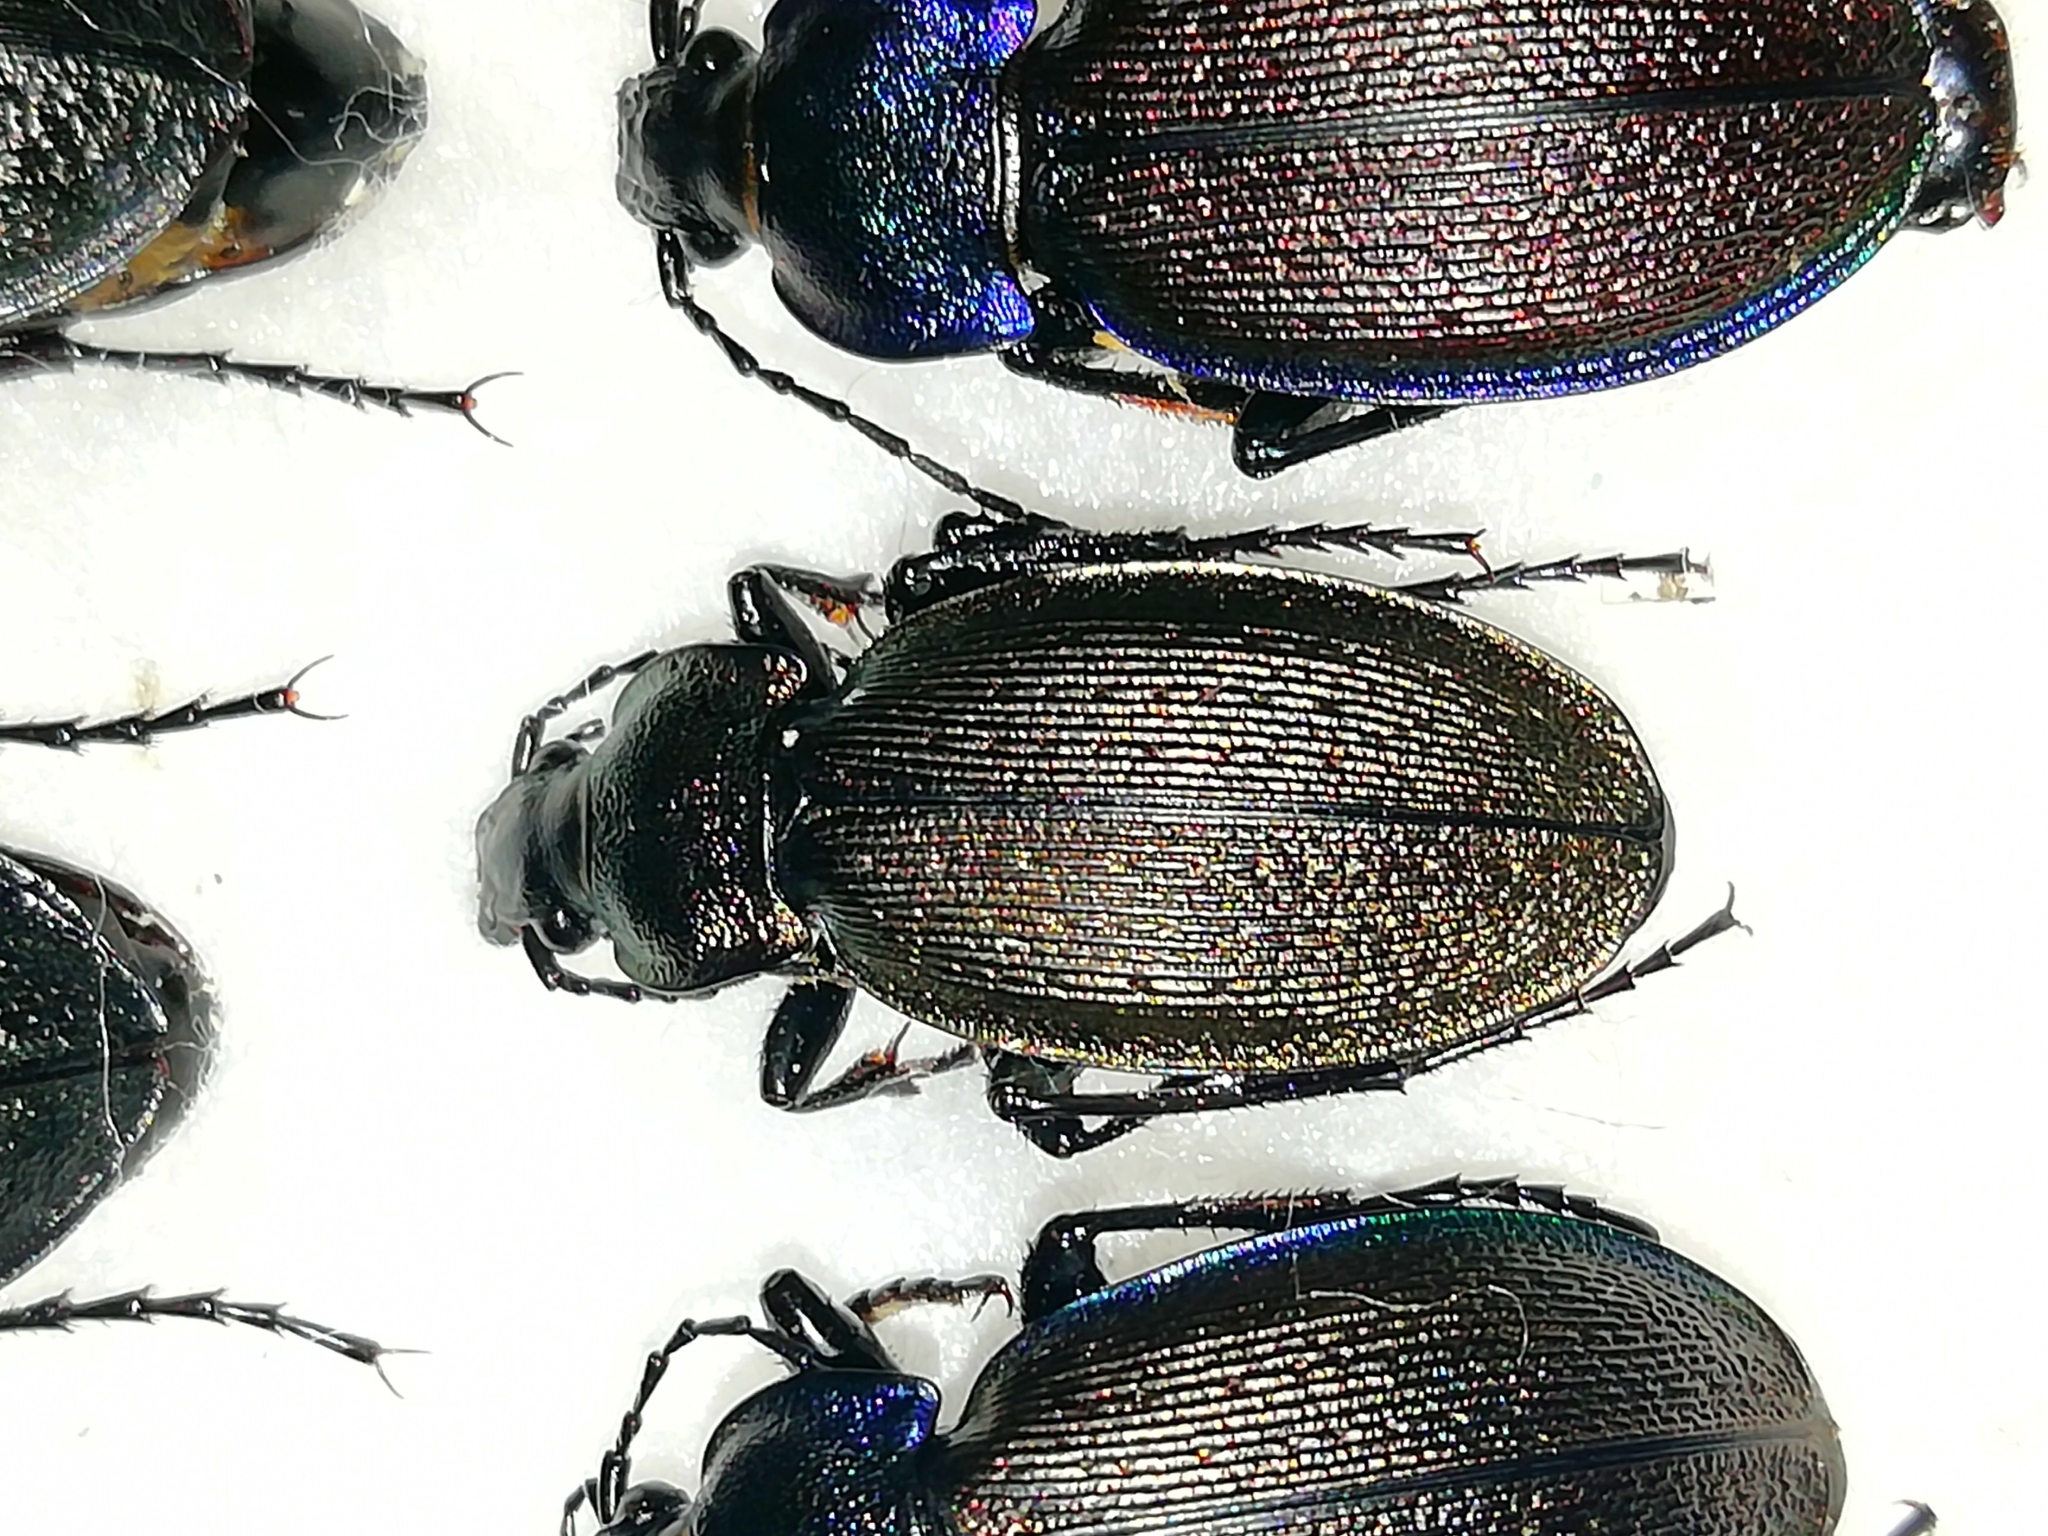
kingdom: Animalia
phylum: Arthropoda
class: Insecta
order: Coleoptera
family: Carabidae
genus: Carabus
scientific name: Carabus regalis
